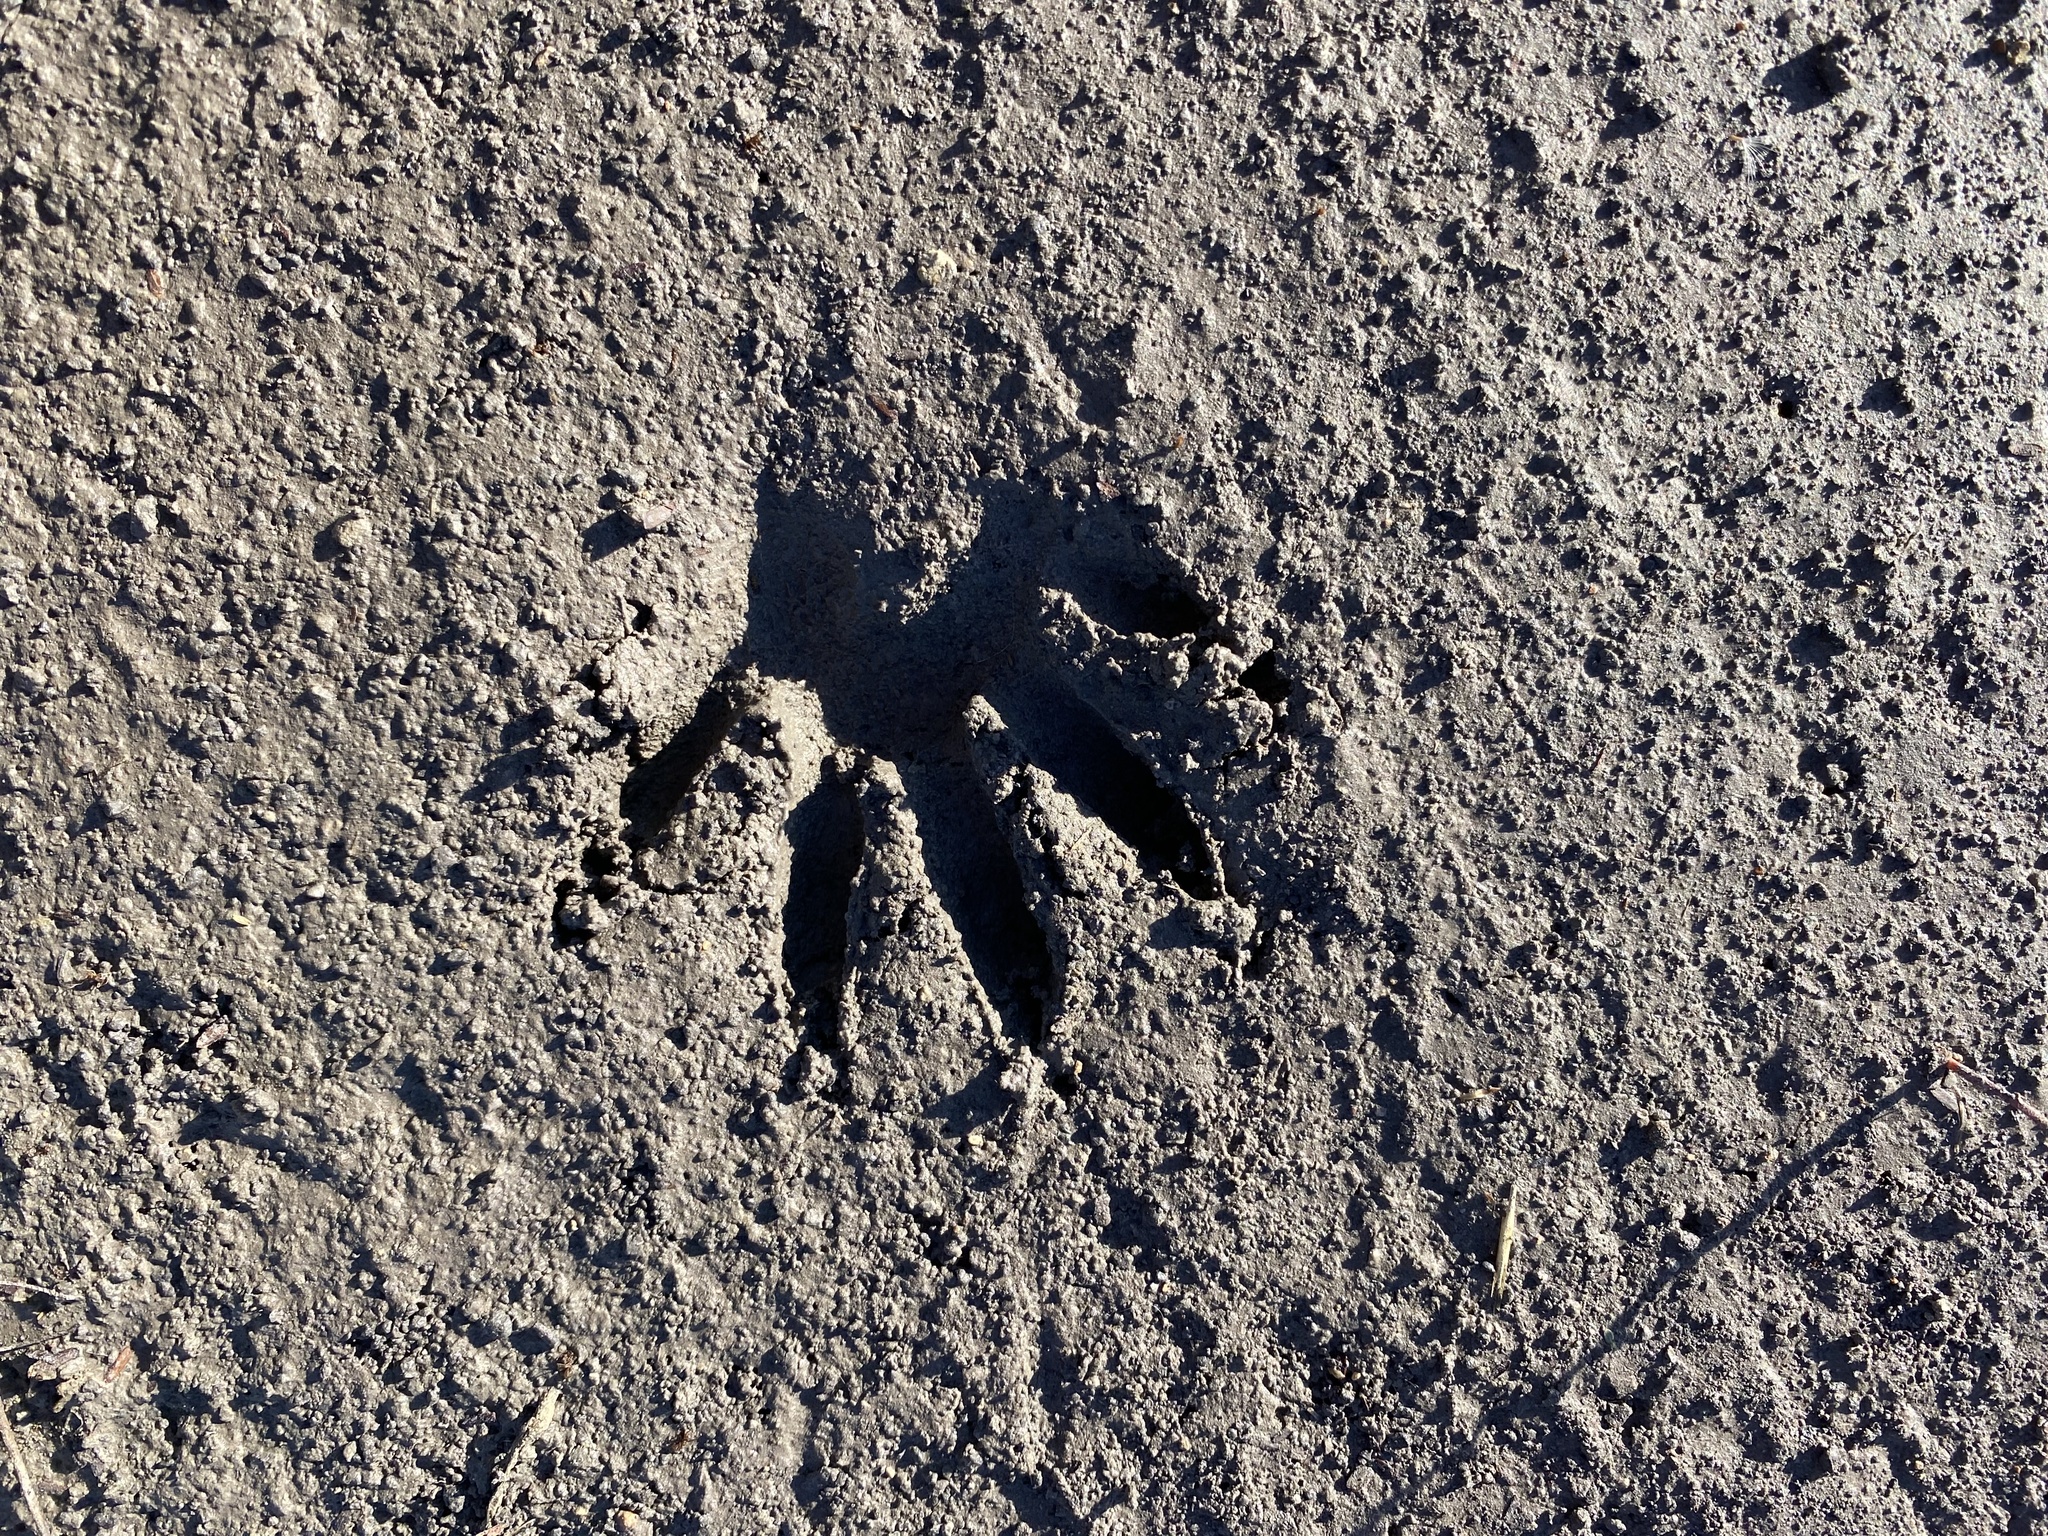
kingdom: Animalia
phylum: Chordata
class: Mammalia
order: Carnivora
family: Procyonidae
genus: Procyon
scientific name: Procyon lotor
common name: Raccoon
